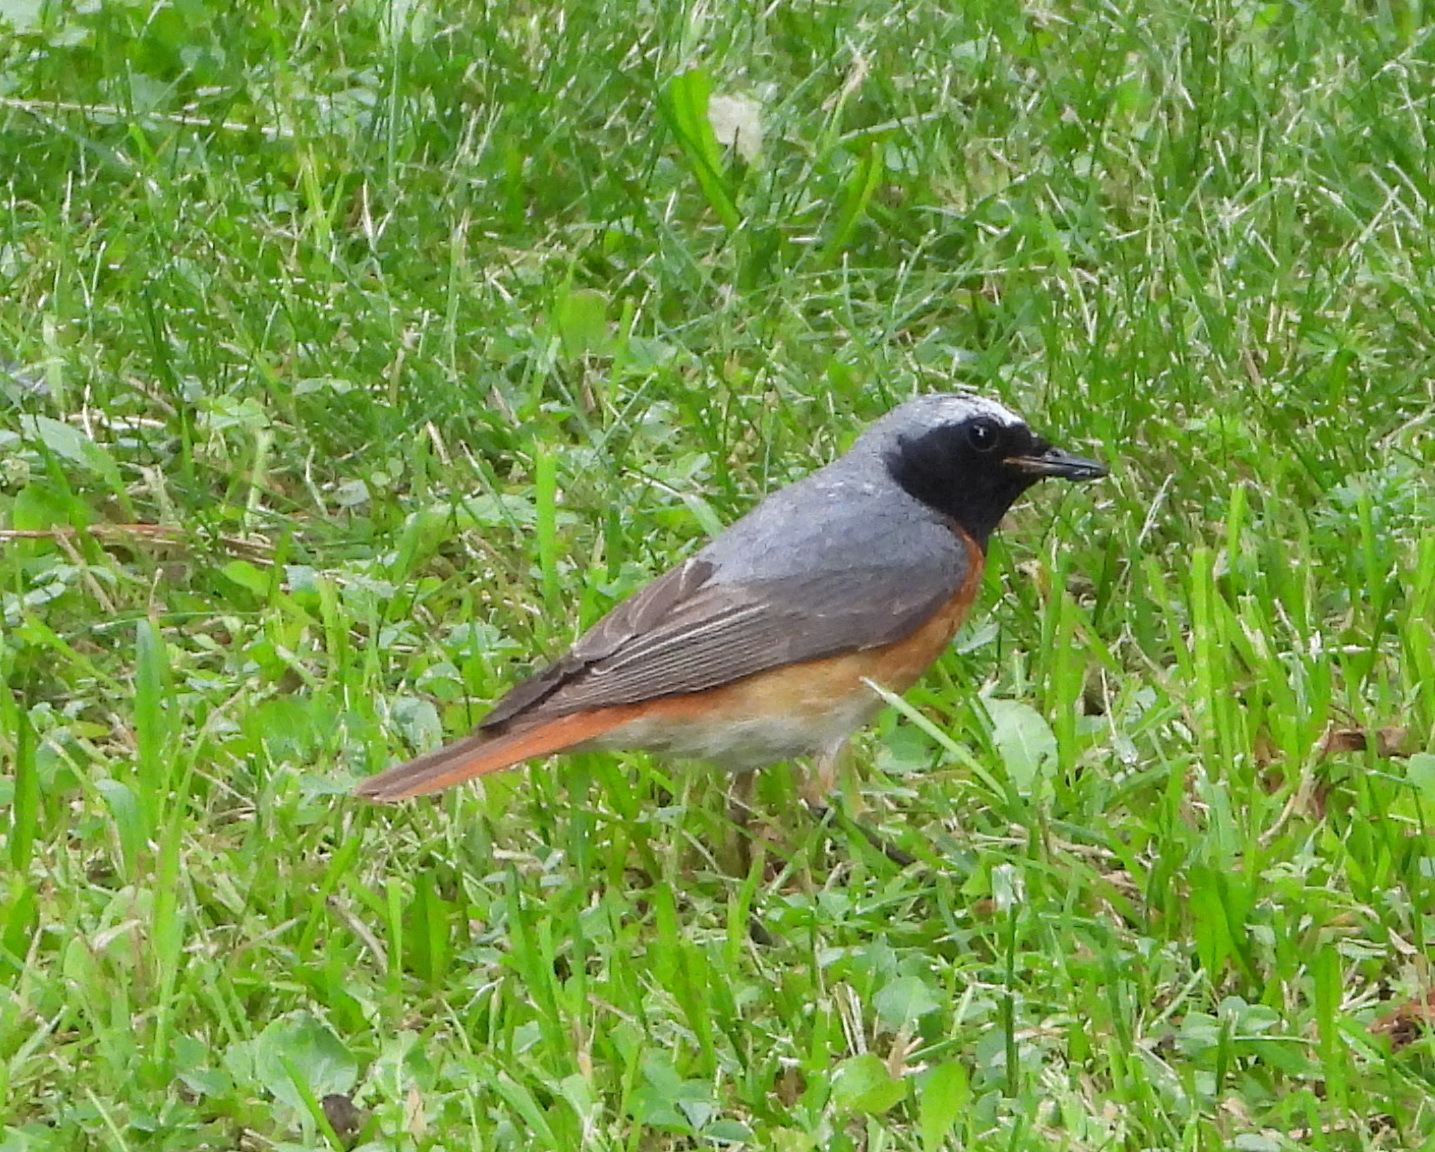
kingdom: Animalia
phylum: Chordata
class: Aves
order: Passeriformes
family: Muscicapidae
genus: Phoenicurus
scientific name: Phoenicurus phoenicurus
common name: Common redstart
